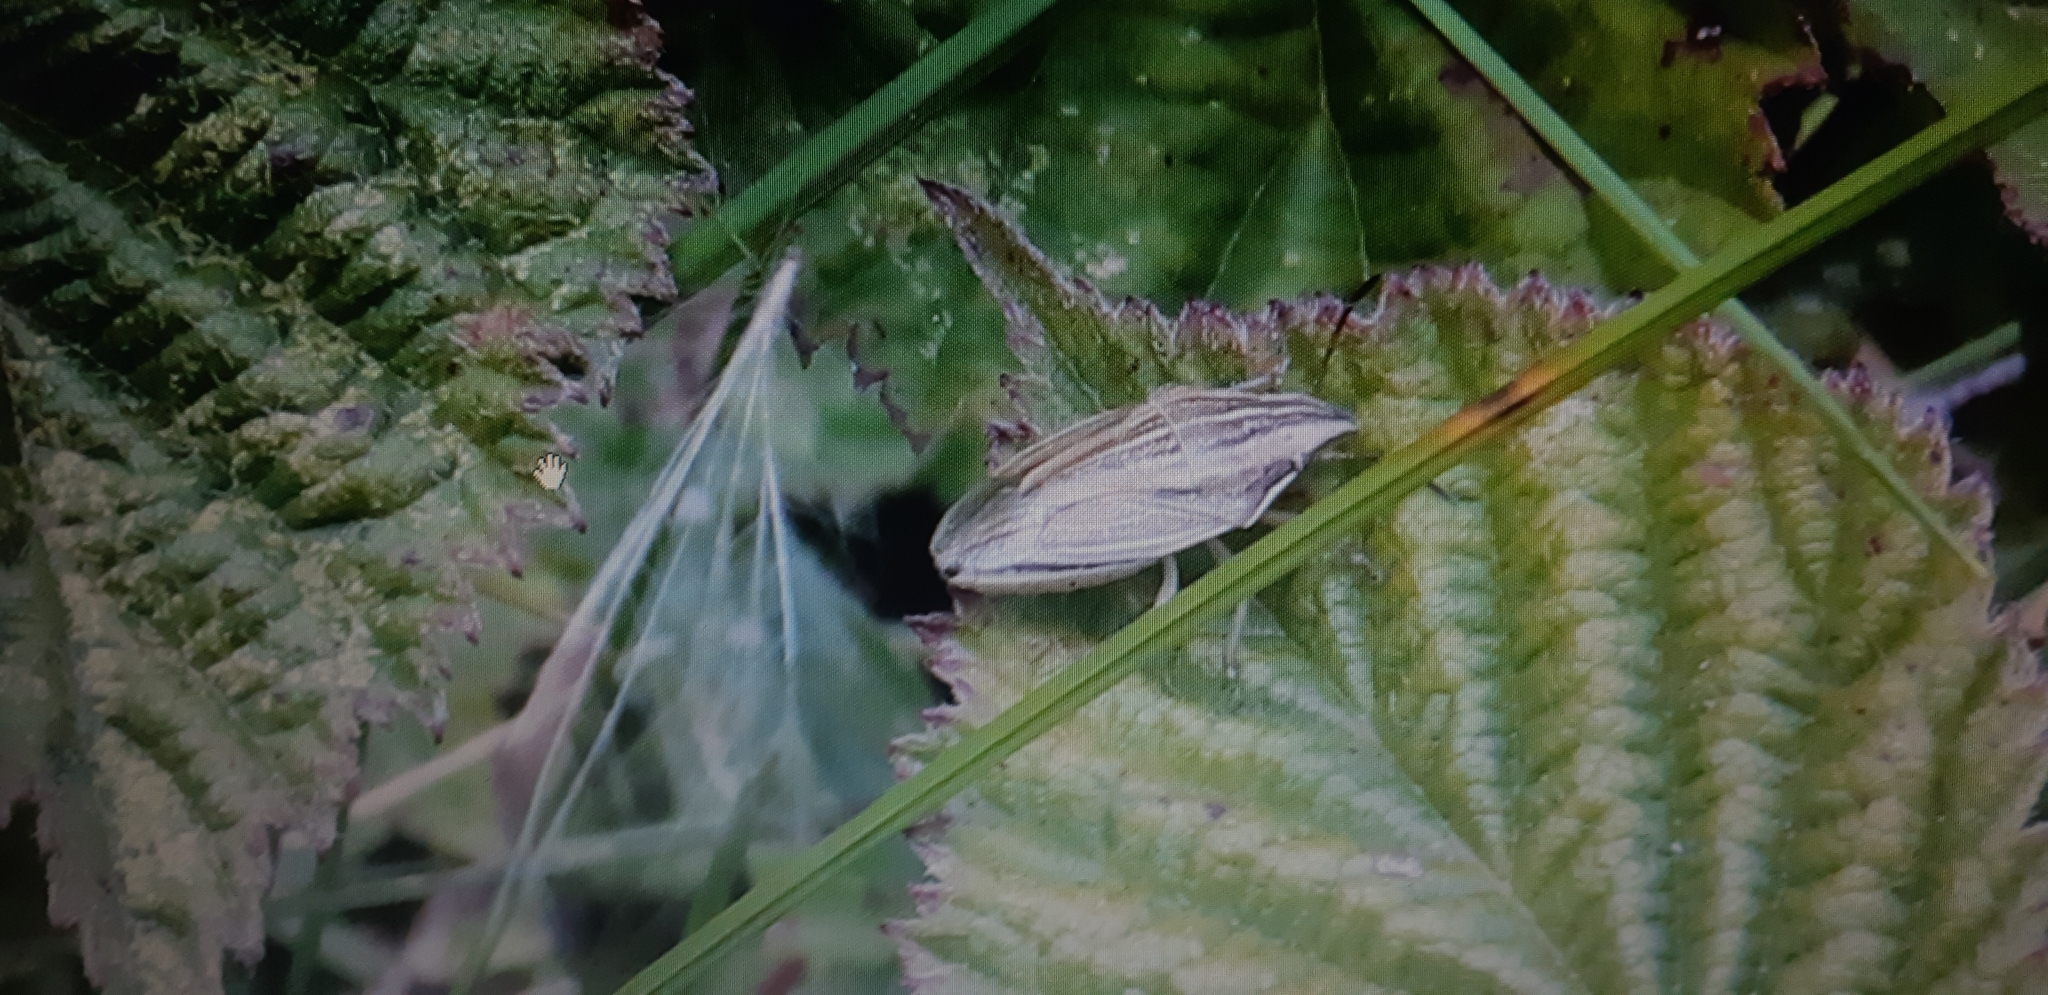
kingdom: Animalia
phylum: Arthropoda
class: Insecta
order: Hemiptera
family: Pentatomidae
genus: Aelia
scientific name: Aelia acuminata
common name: Bishop's mitre
